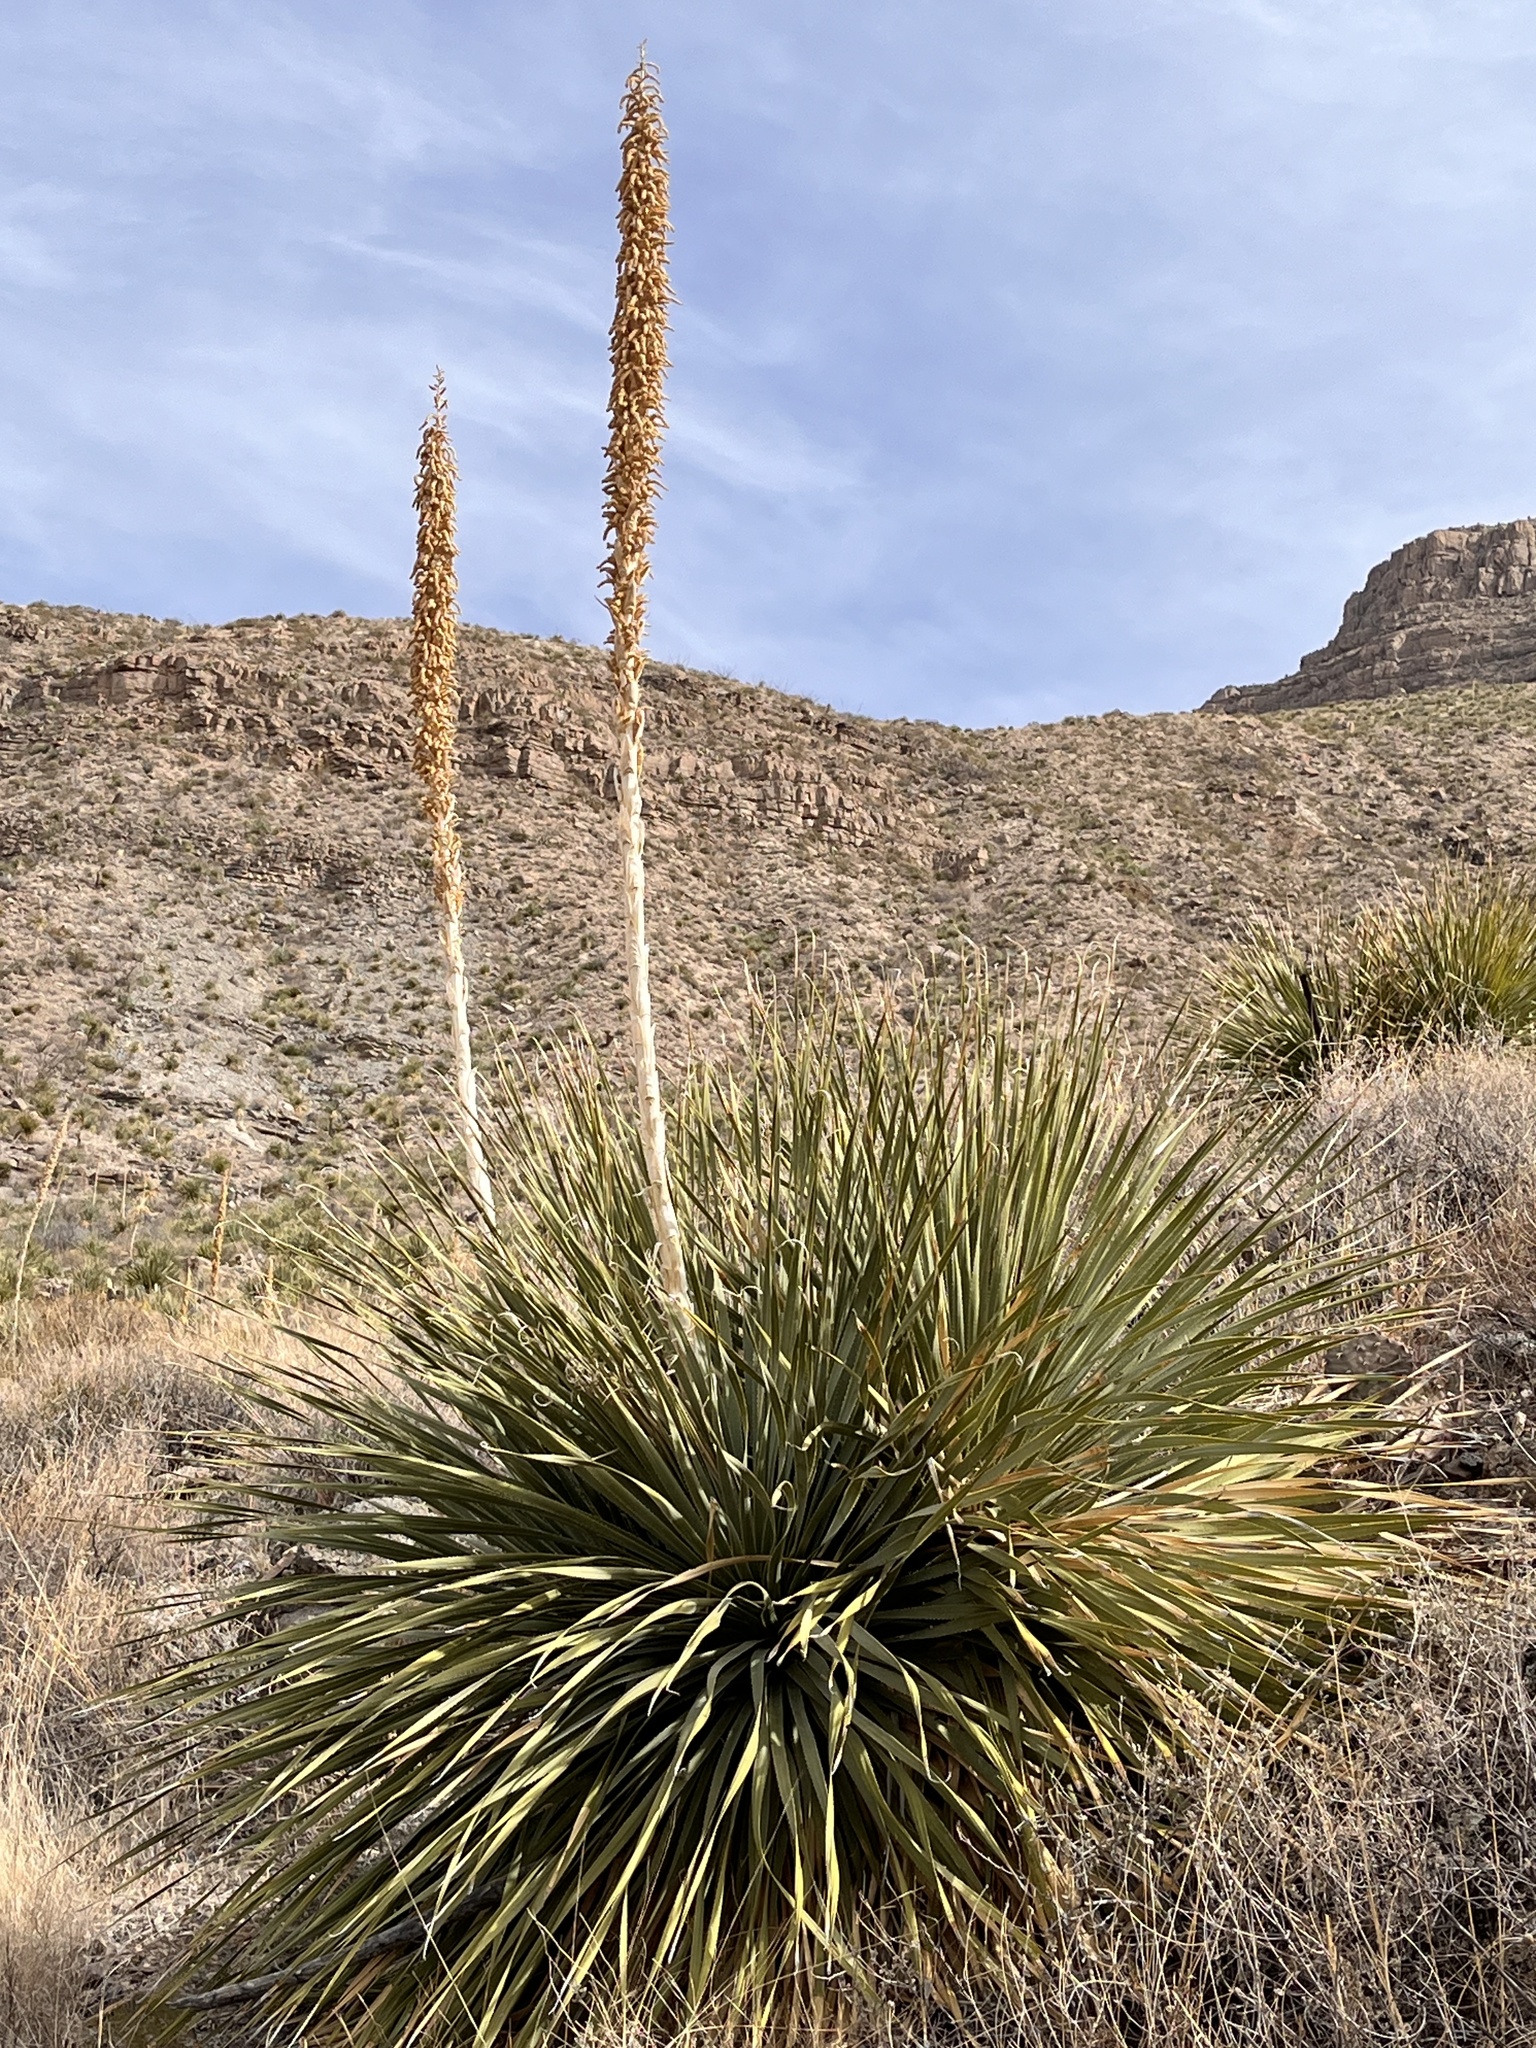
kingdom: Plantae
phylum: Tracheophyta
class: Liliopsida
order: Asparagales
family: Asparagaceae
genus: Dasylirion
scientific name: Dasylirion wheeleri
